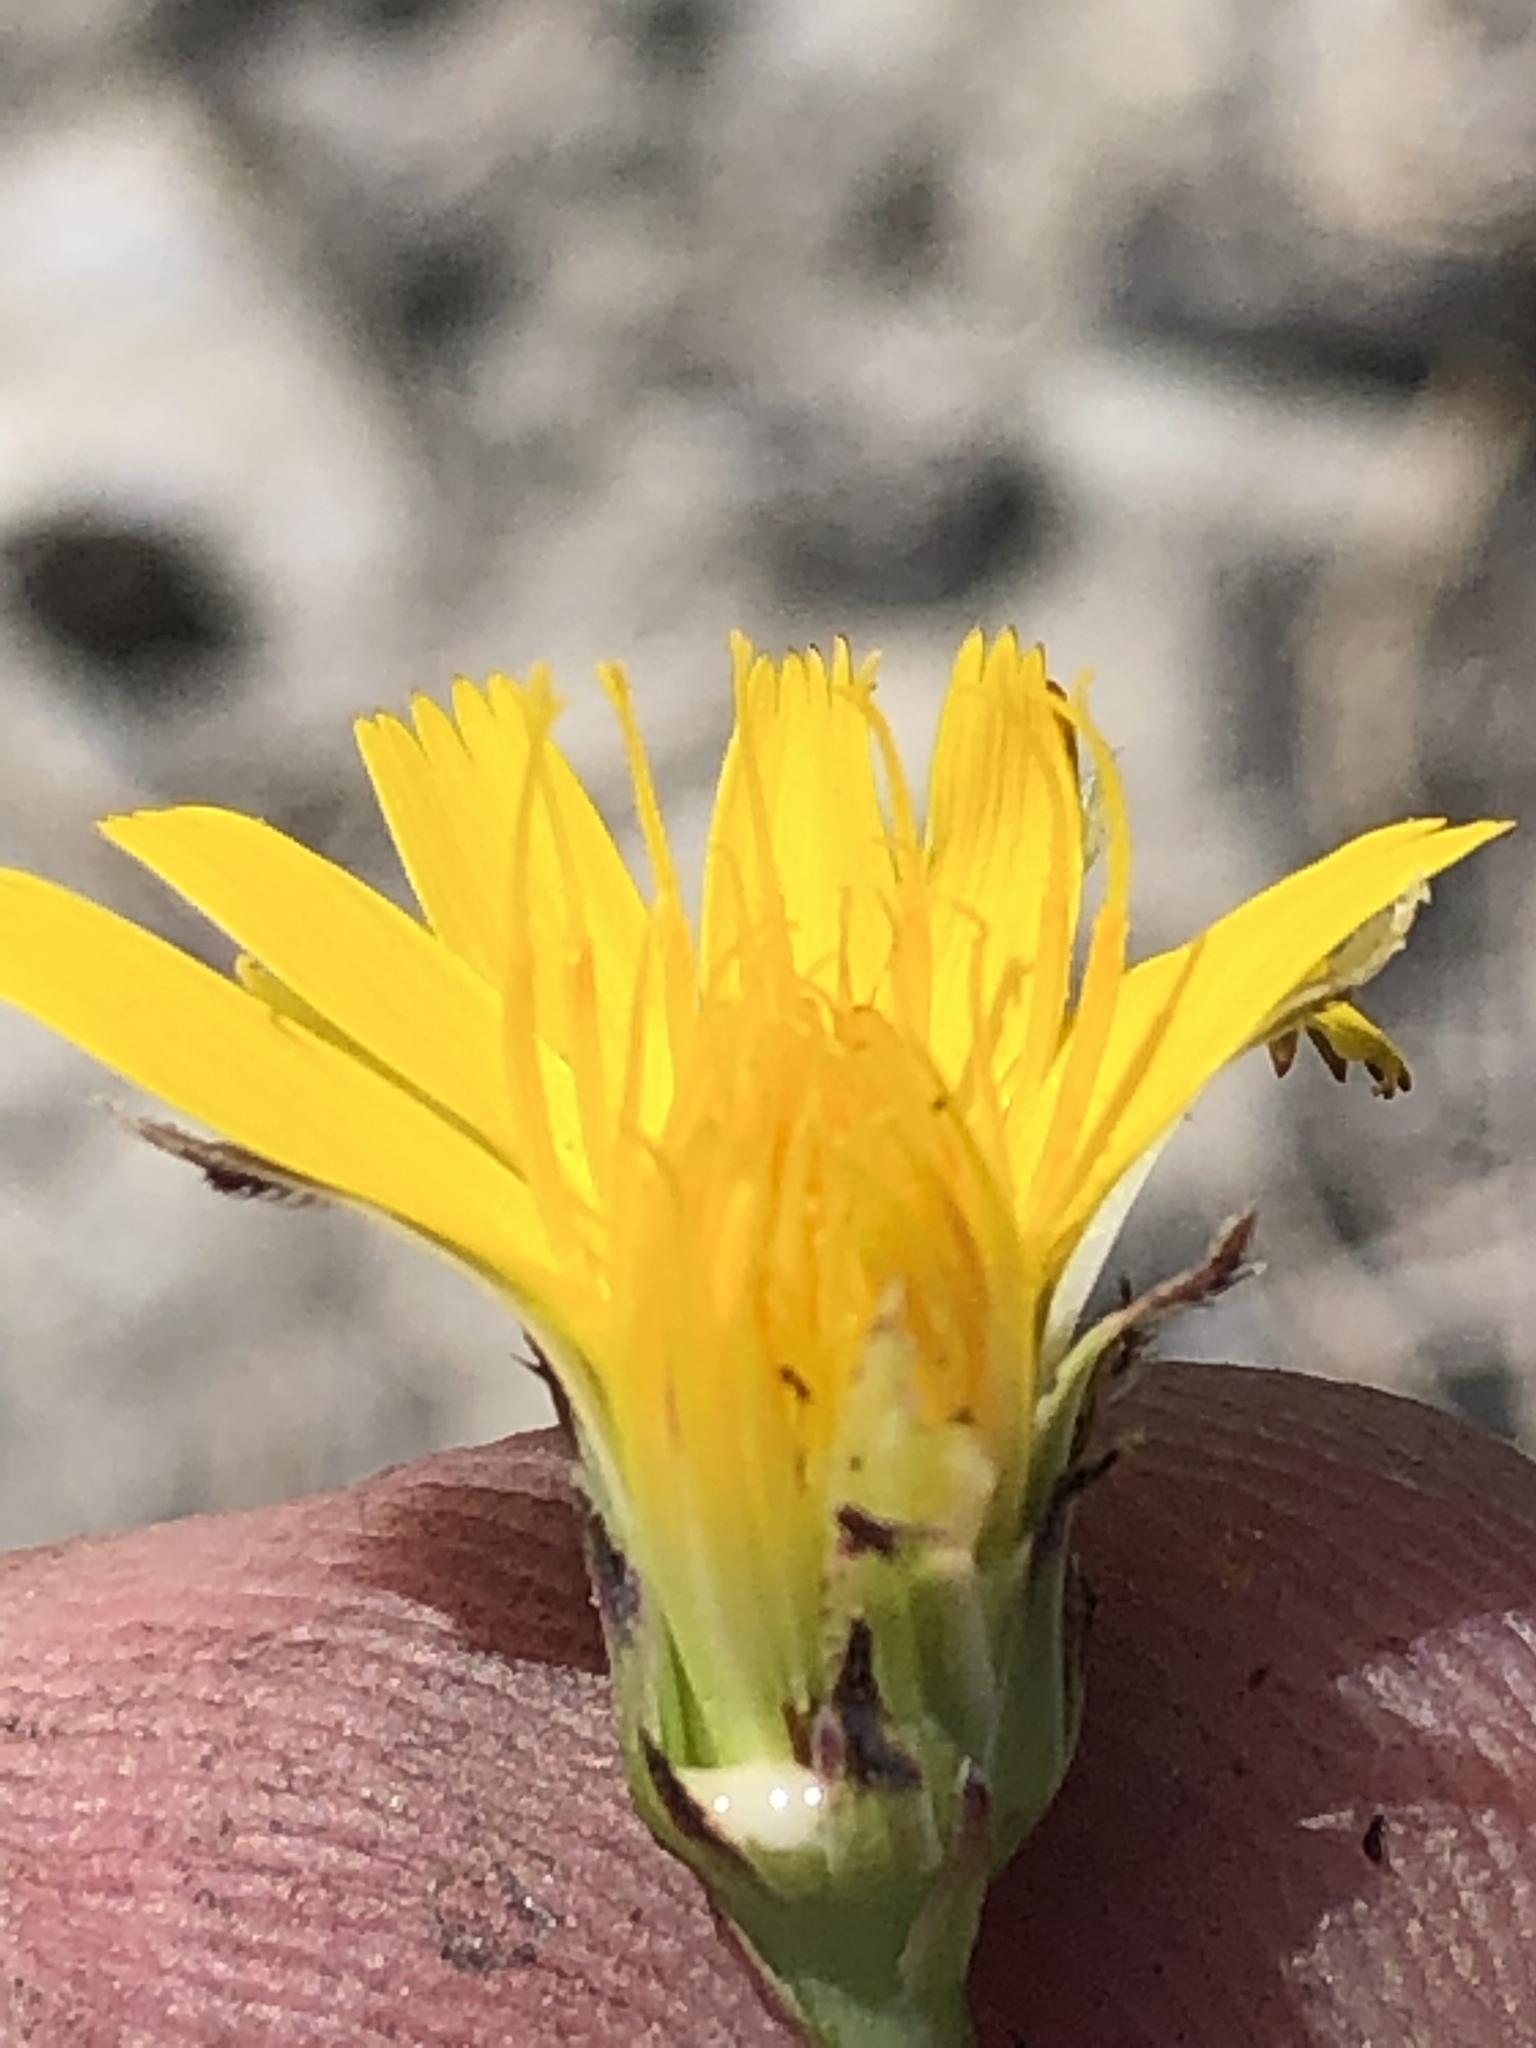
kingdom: Plantae
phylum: Tracheophyta
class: Magnoliopsida
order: Asterales
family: Asteraceae
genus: Hypochaeris
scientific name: Hypochaeris radicata
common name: Flatweed
